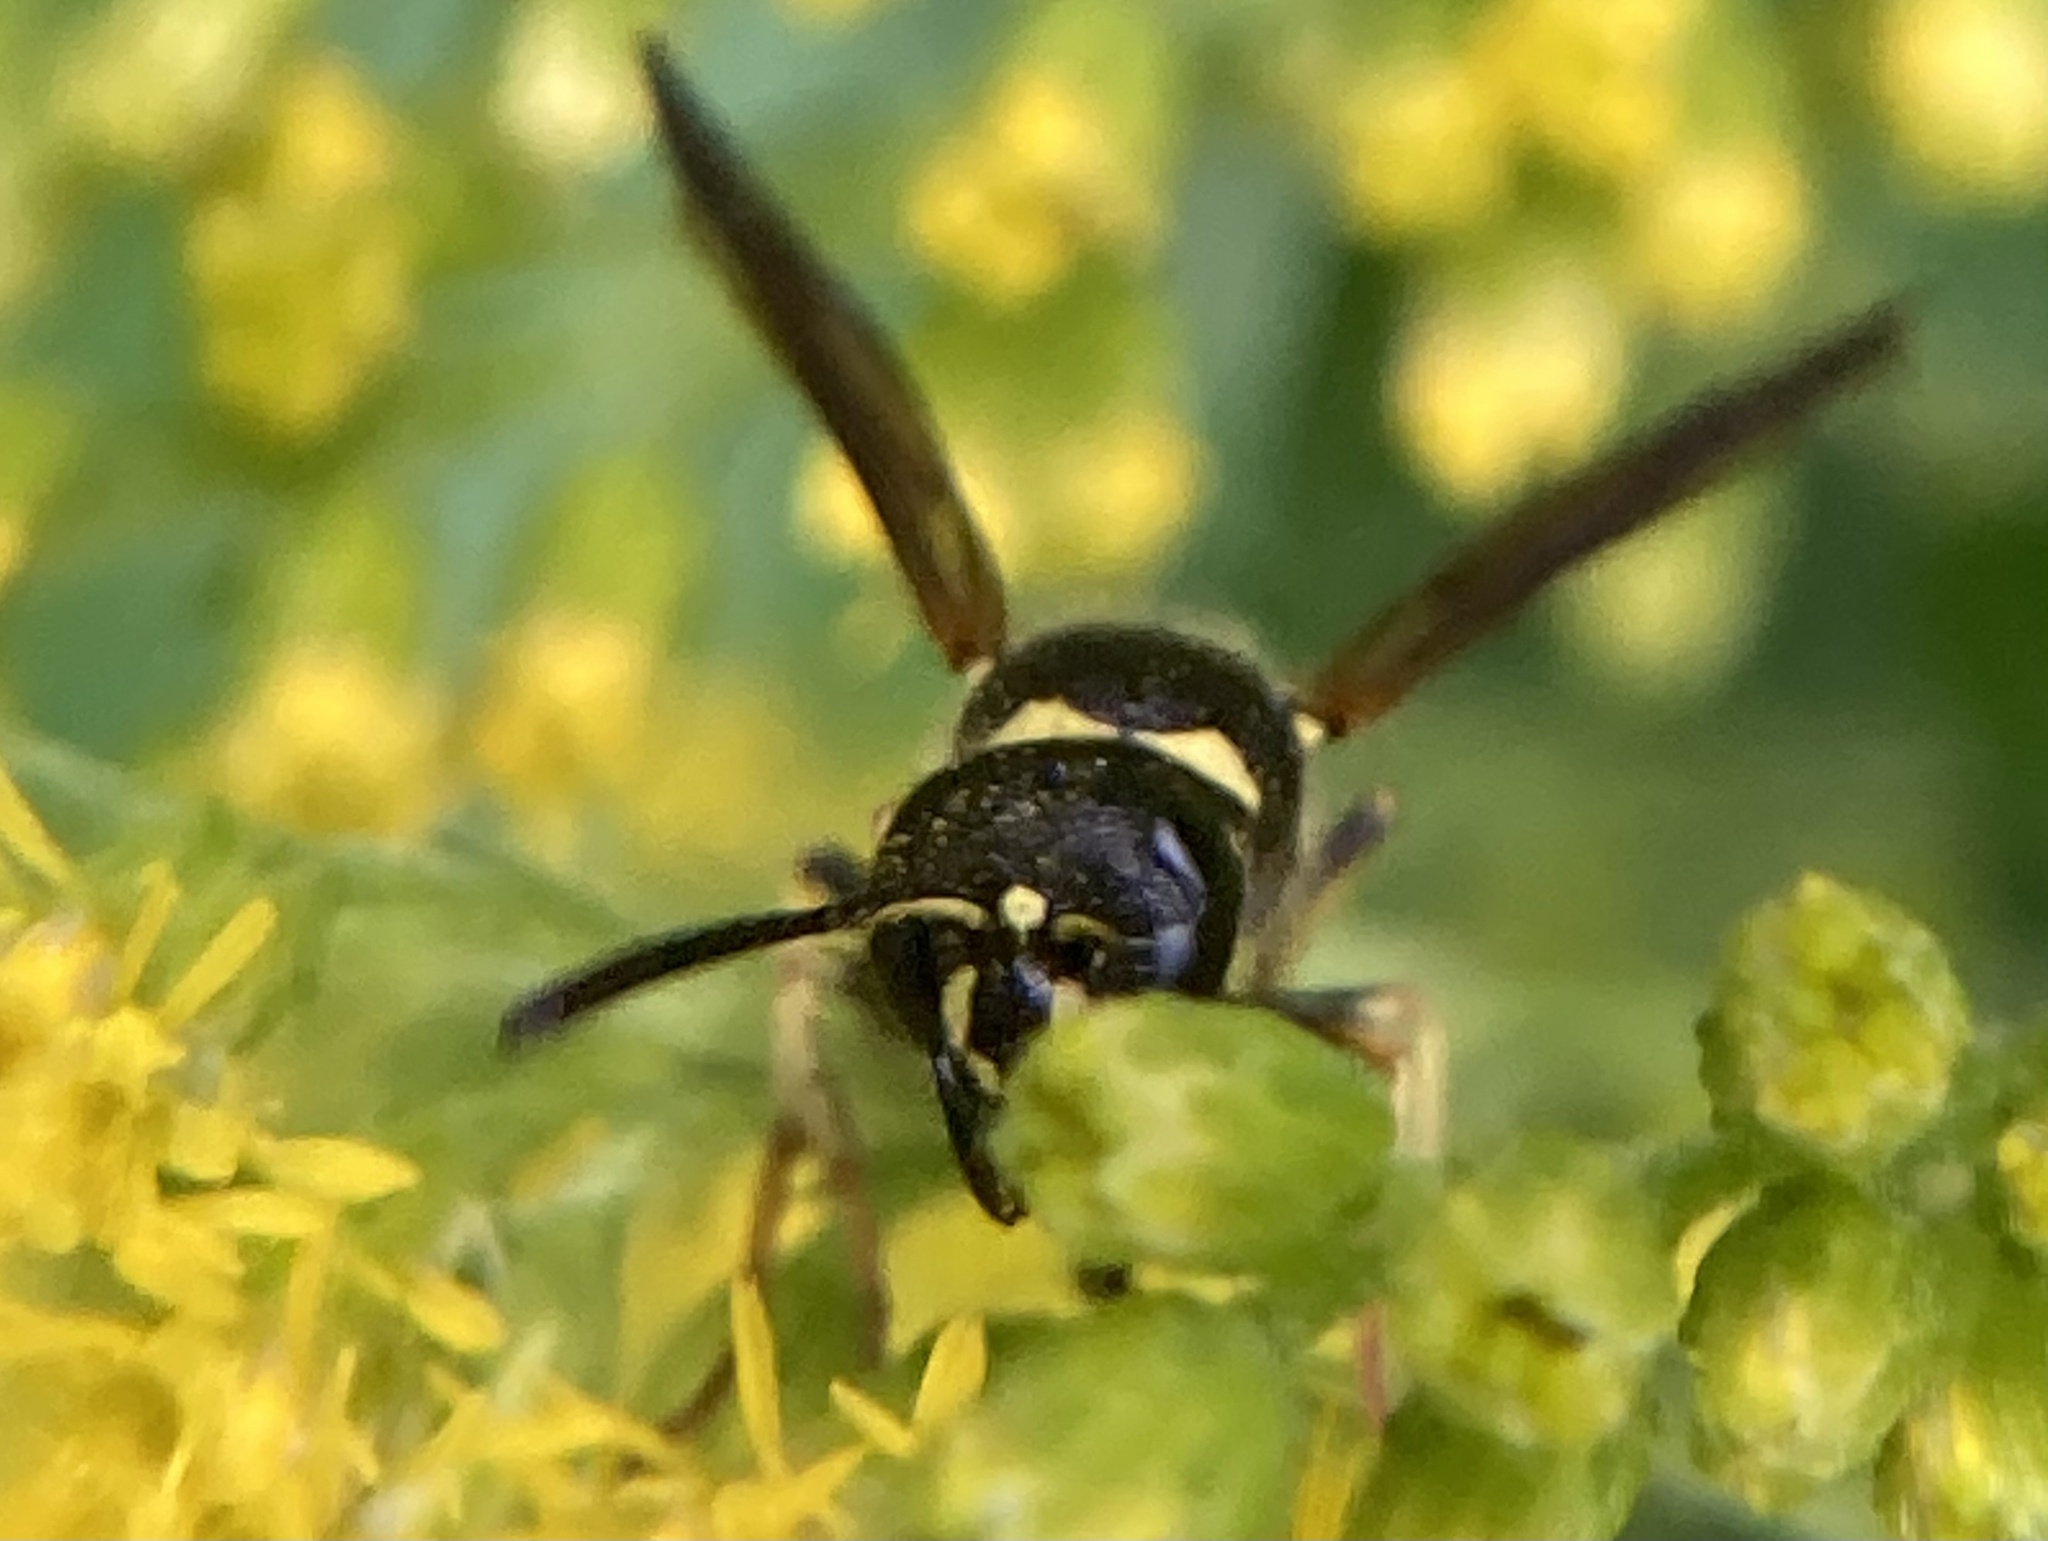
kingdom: Animalia
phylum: Arthropoda
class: Insecta
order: Hymenoptera
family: Vespidae
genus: Ancistrocerus
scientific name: Ancistrocerus adiabatus
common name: Bramble mason wasp
